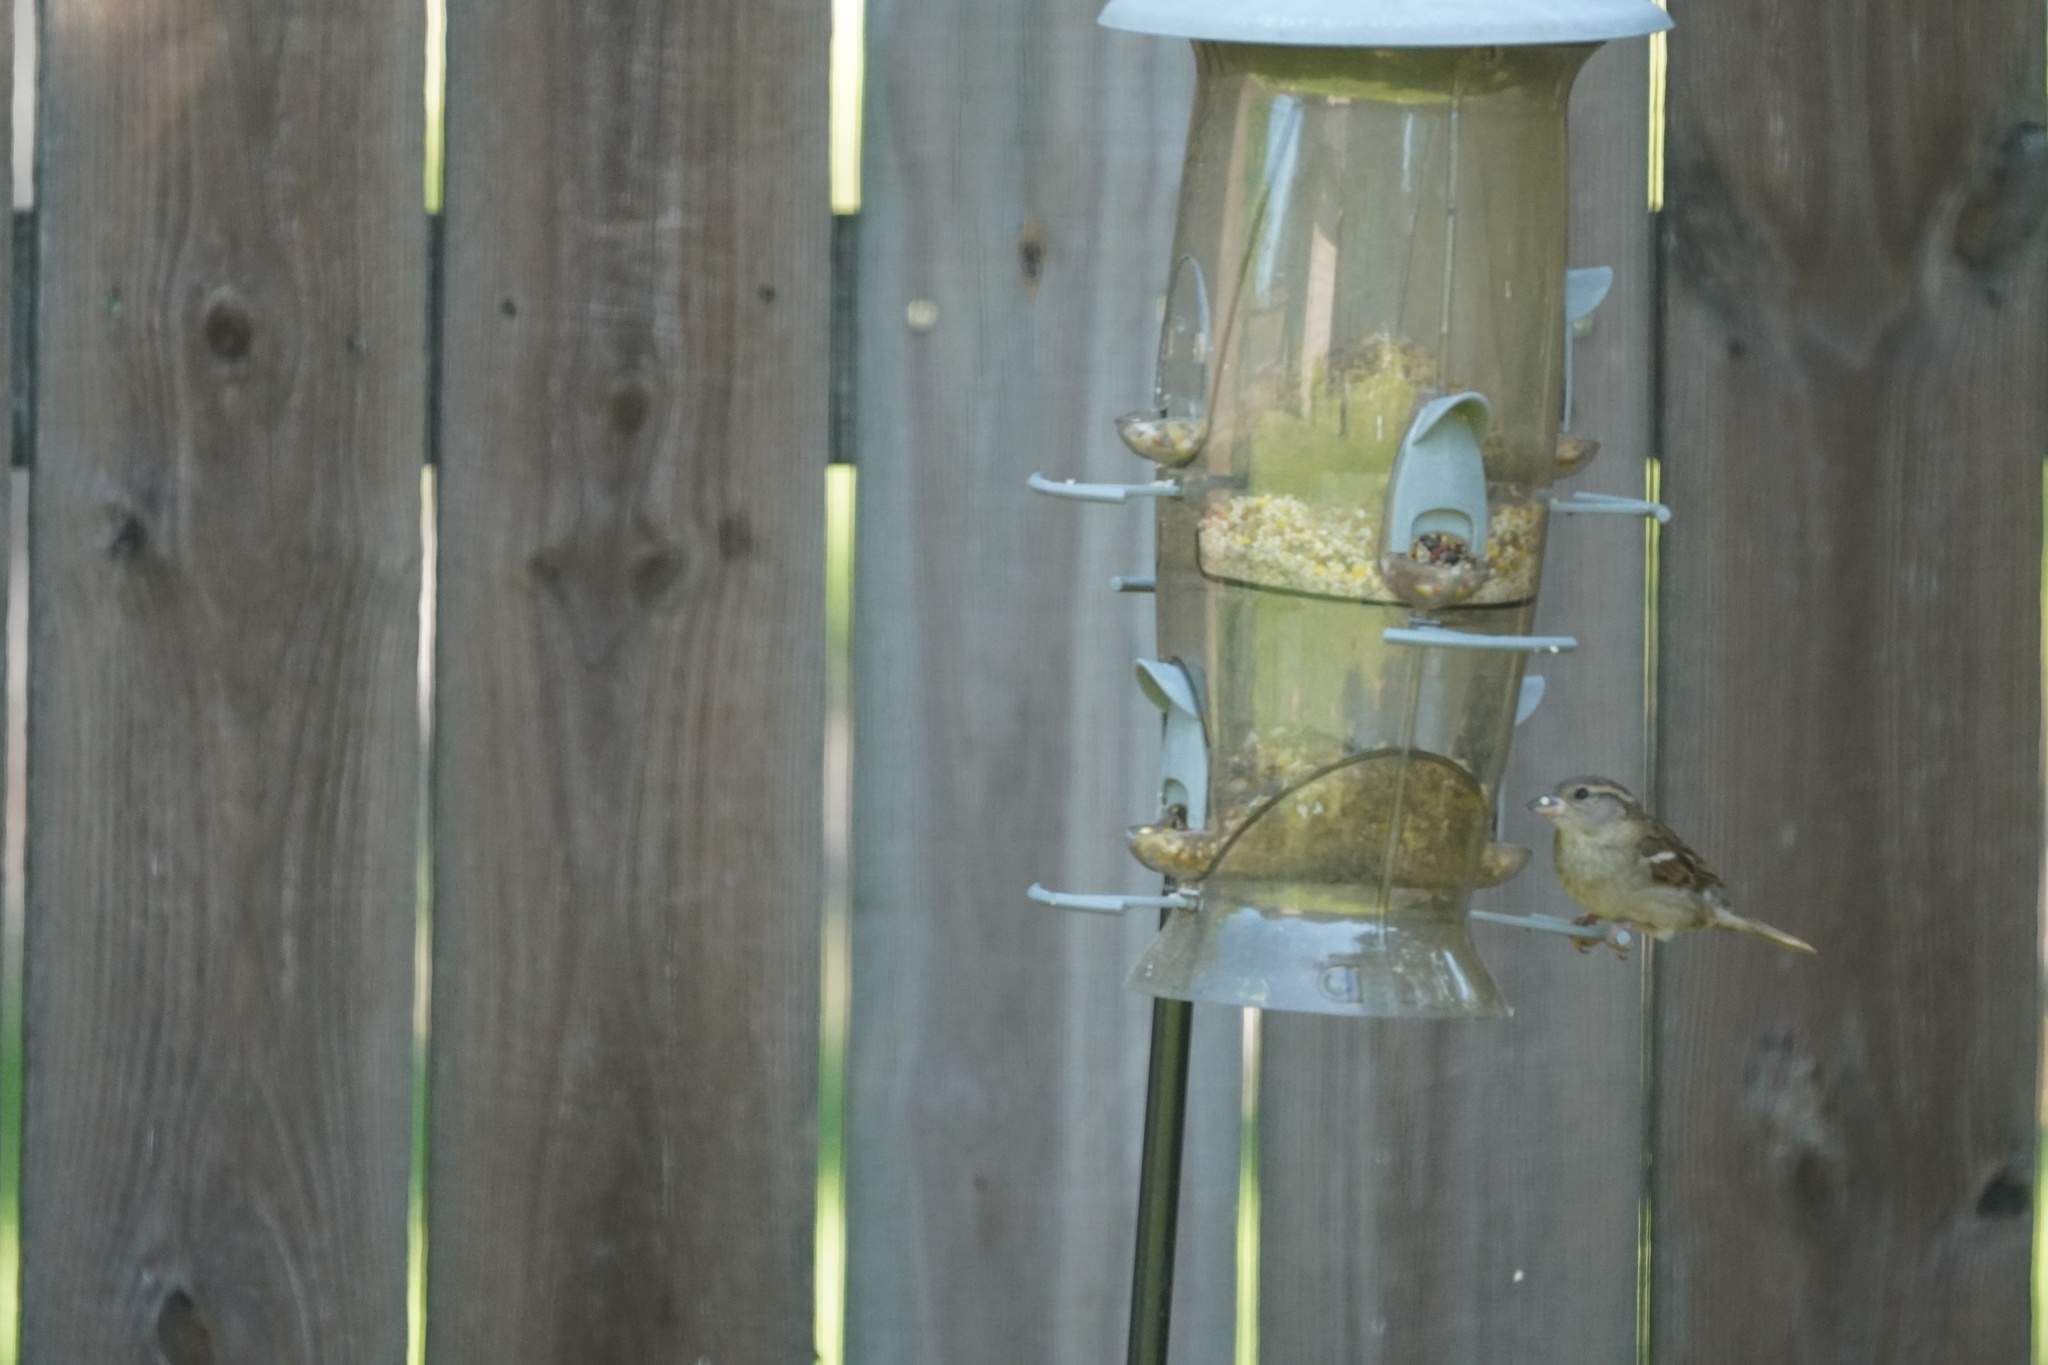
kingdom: Animalia
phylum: Chordata
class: Aves
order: Passeriformes
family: Passeridae
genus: Passer
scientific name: Passer domesticus
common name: House sparrow
